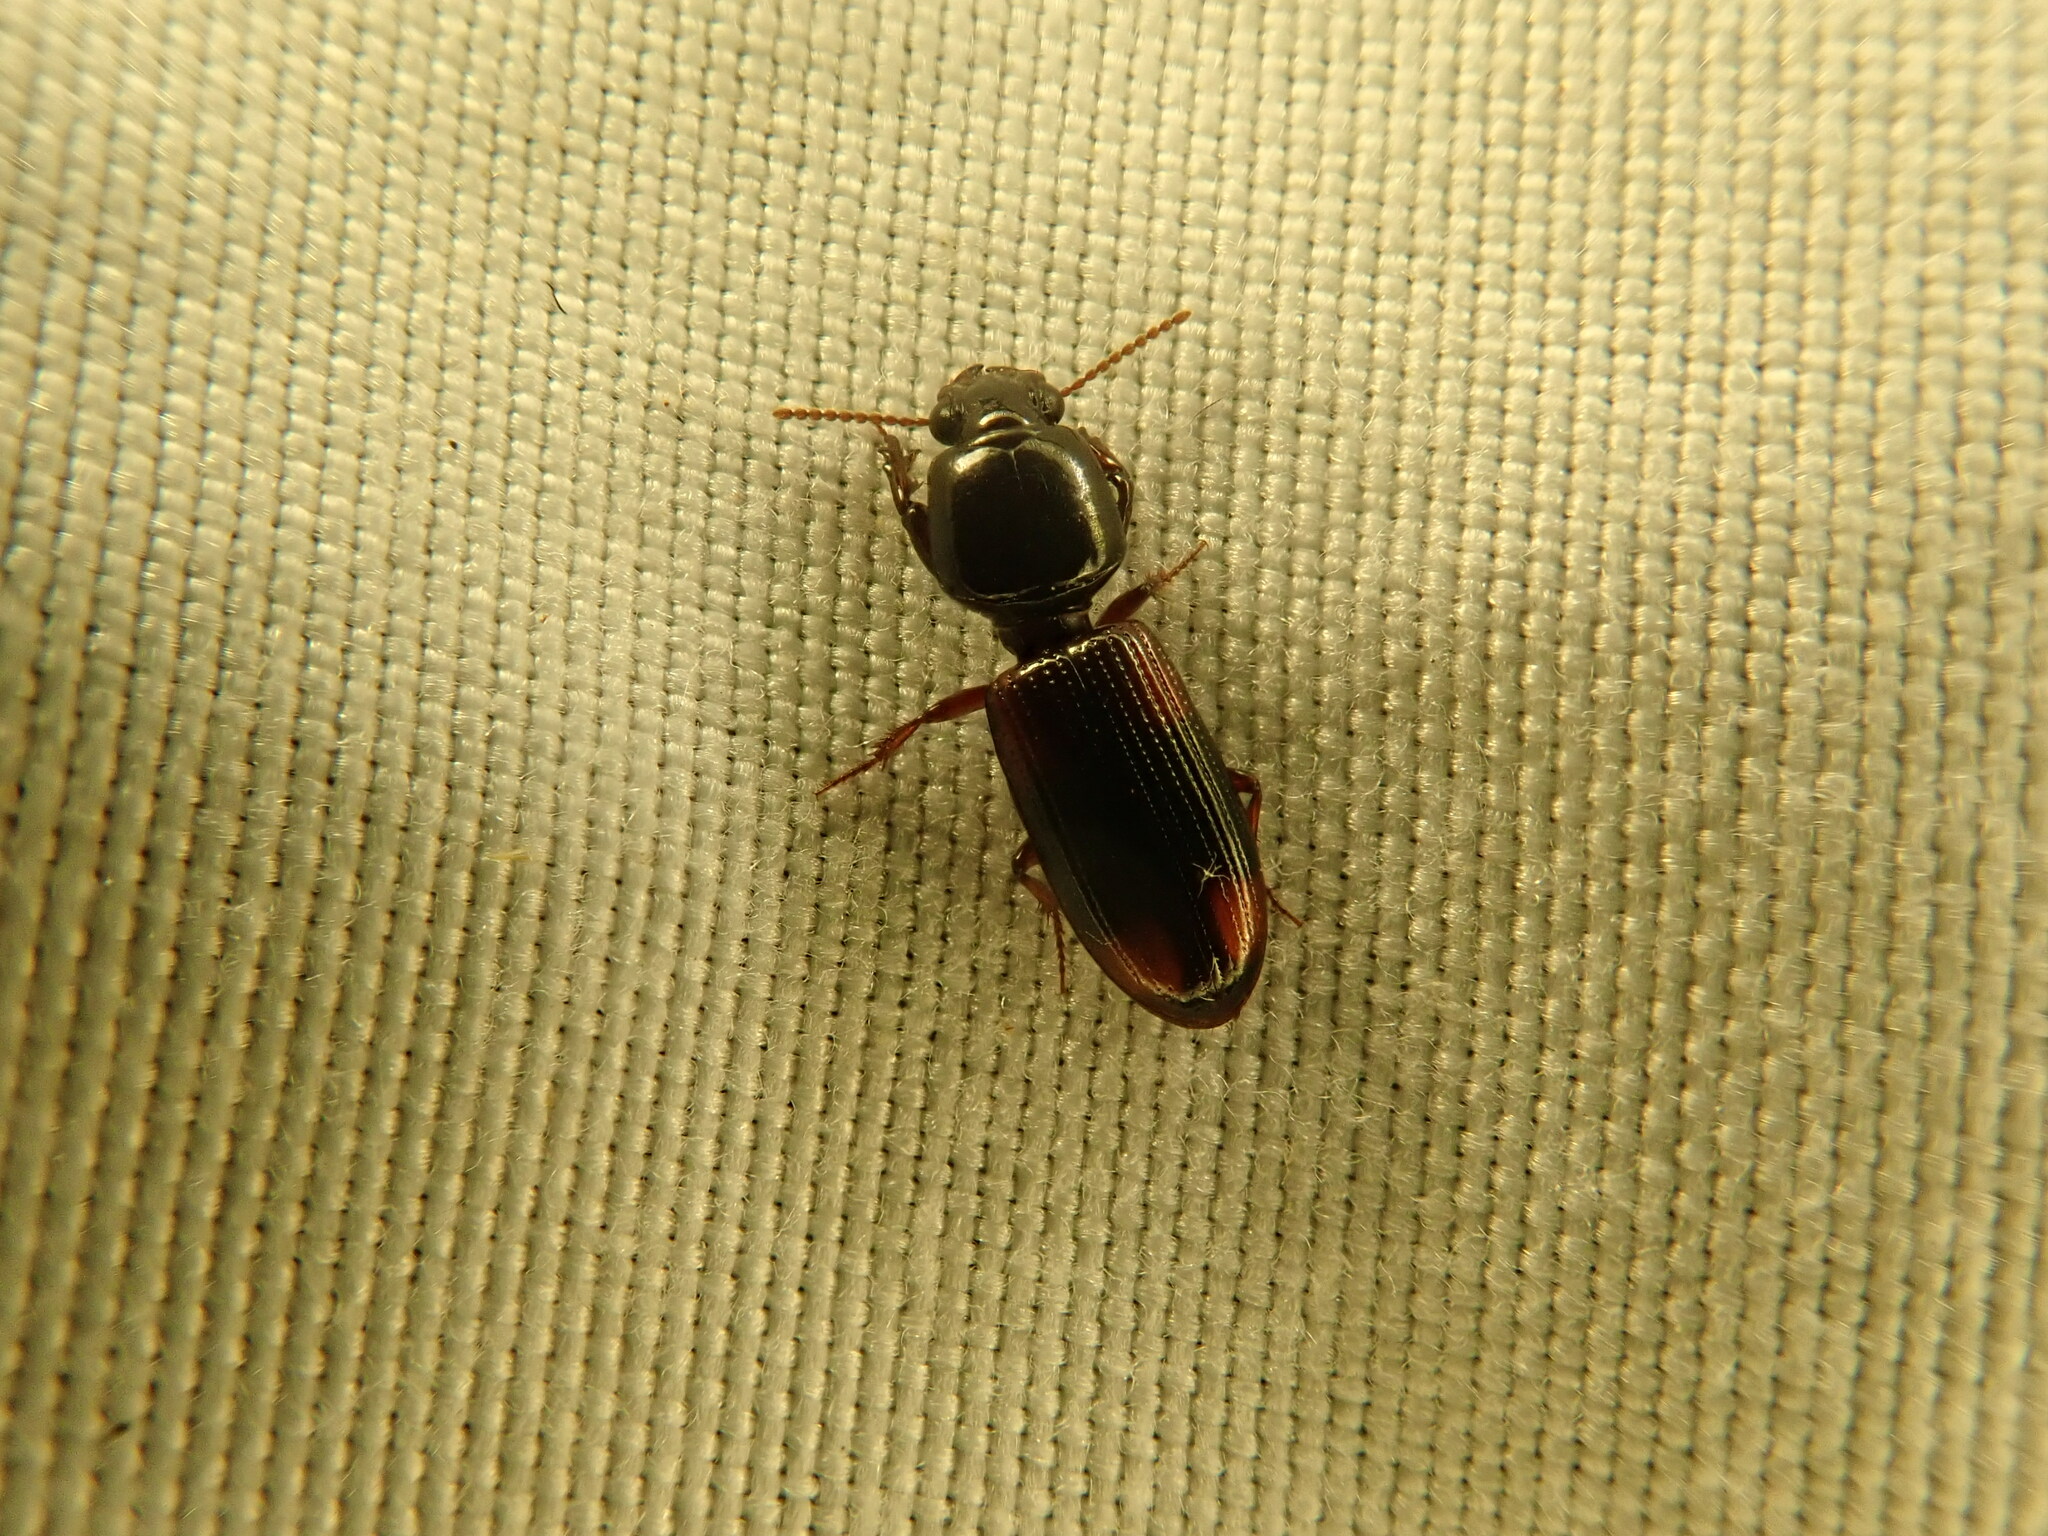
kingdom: Animalia
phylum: Arthropoda
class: Insecta
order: Coleoptera
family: Carabidae
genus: Clivina
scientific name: Clivina bipustulata
